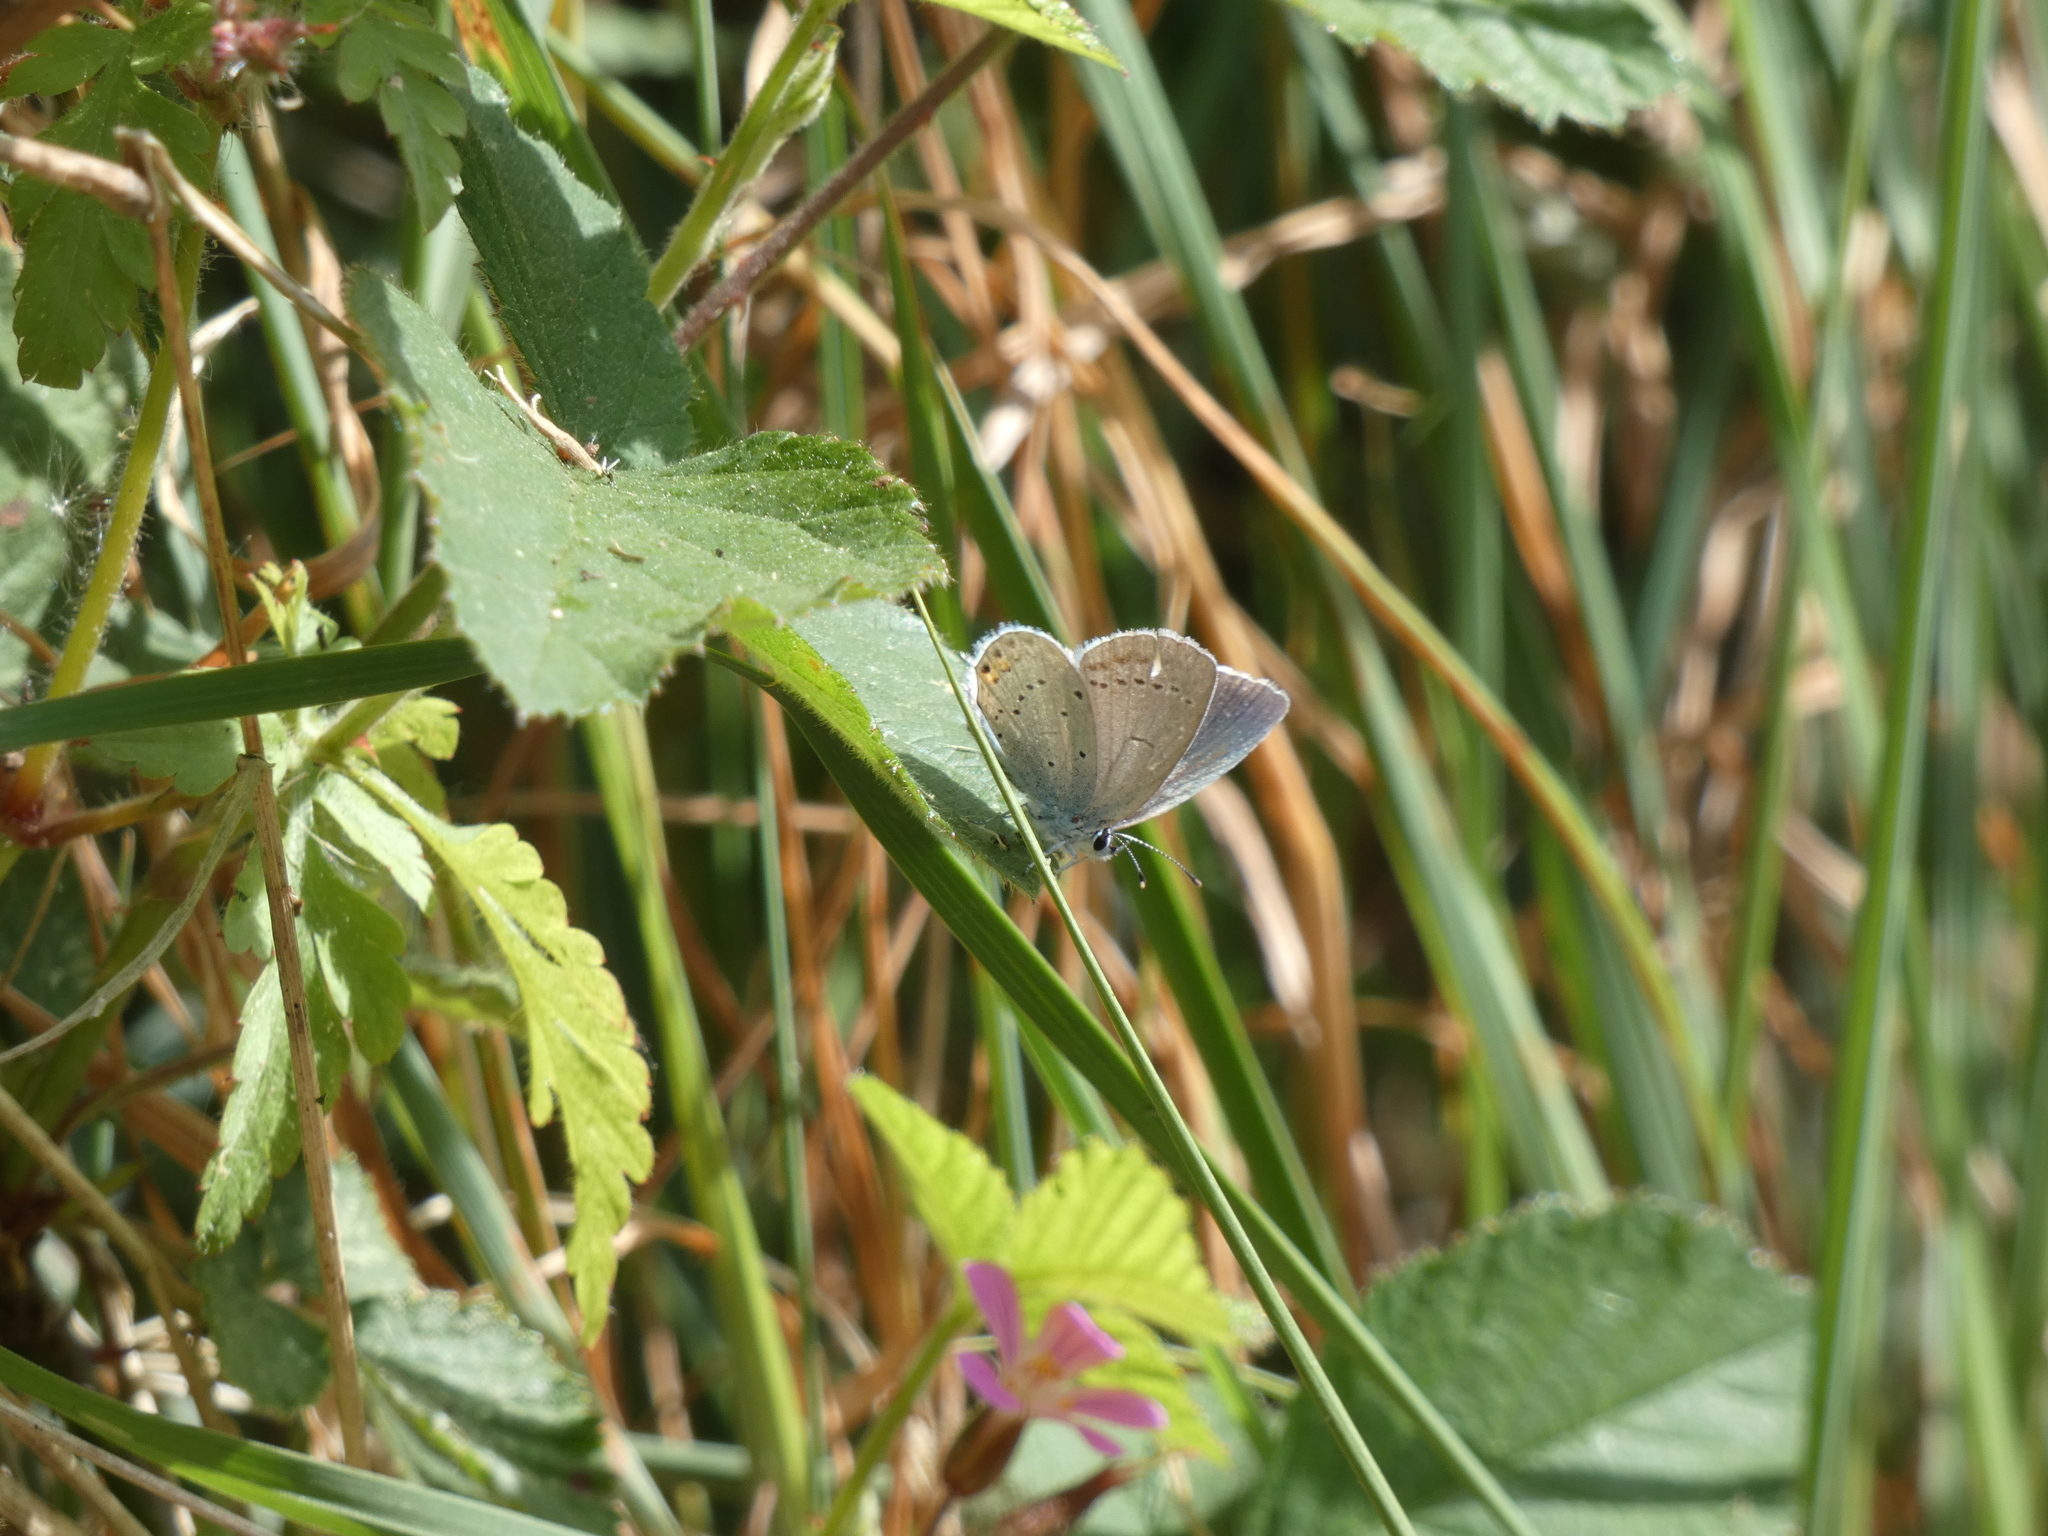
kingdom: Animalia
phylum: Arthropoda
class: Insecta
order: Lepidoptera
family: Lycaenidae
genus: Elkalyce
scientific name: Elkalyce argiades
